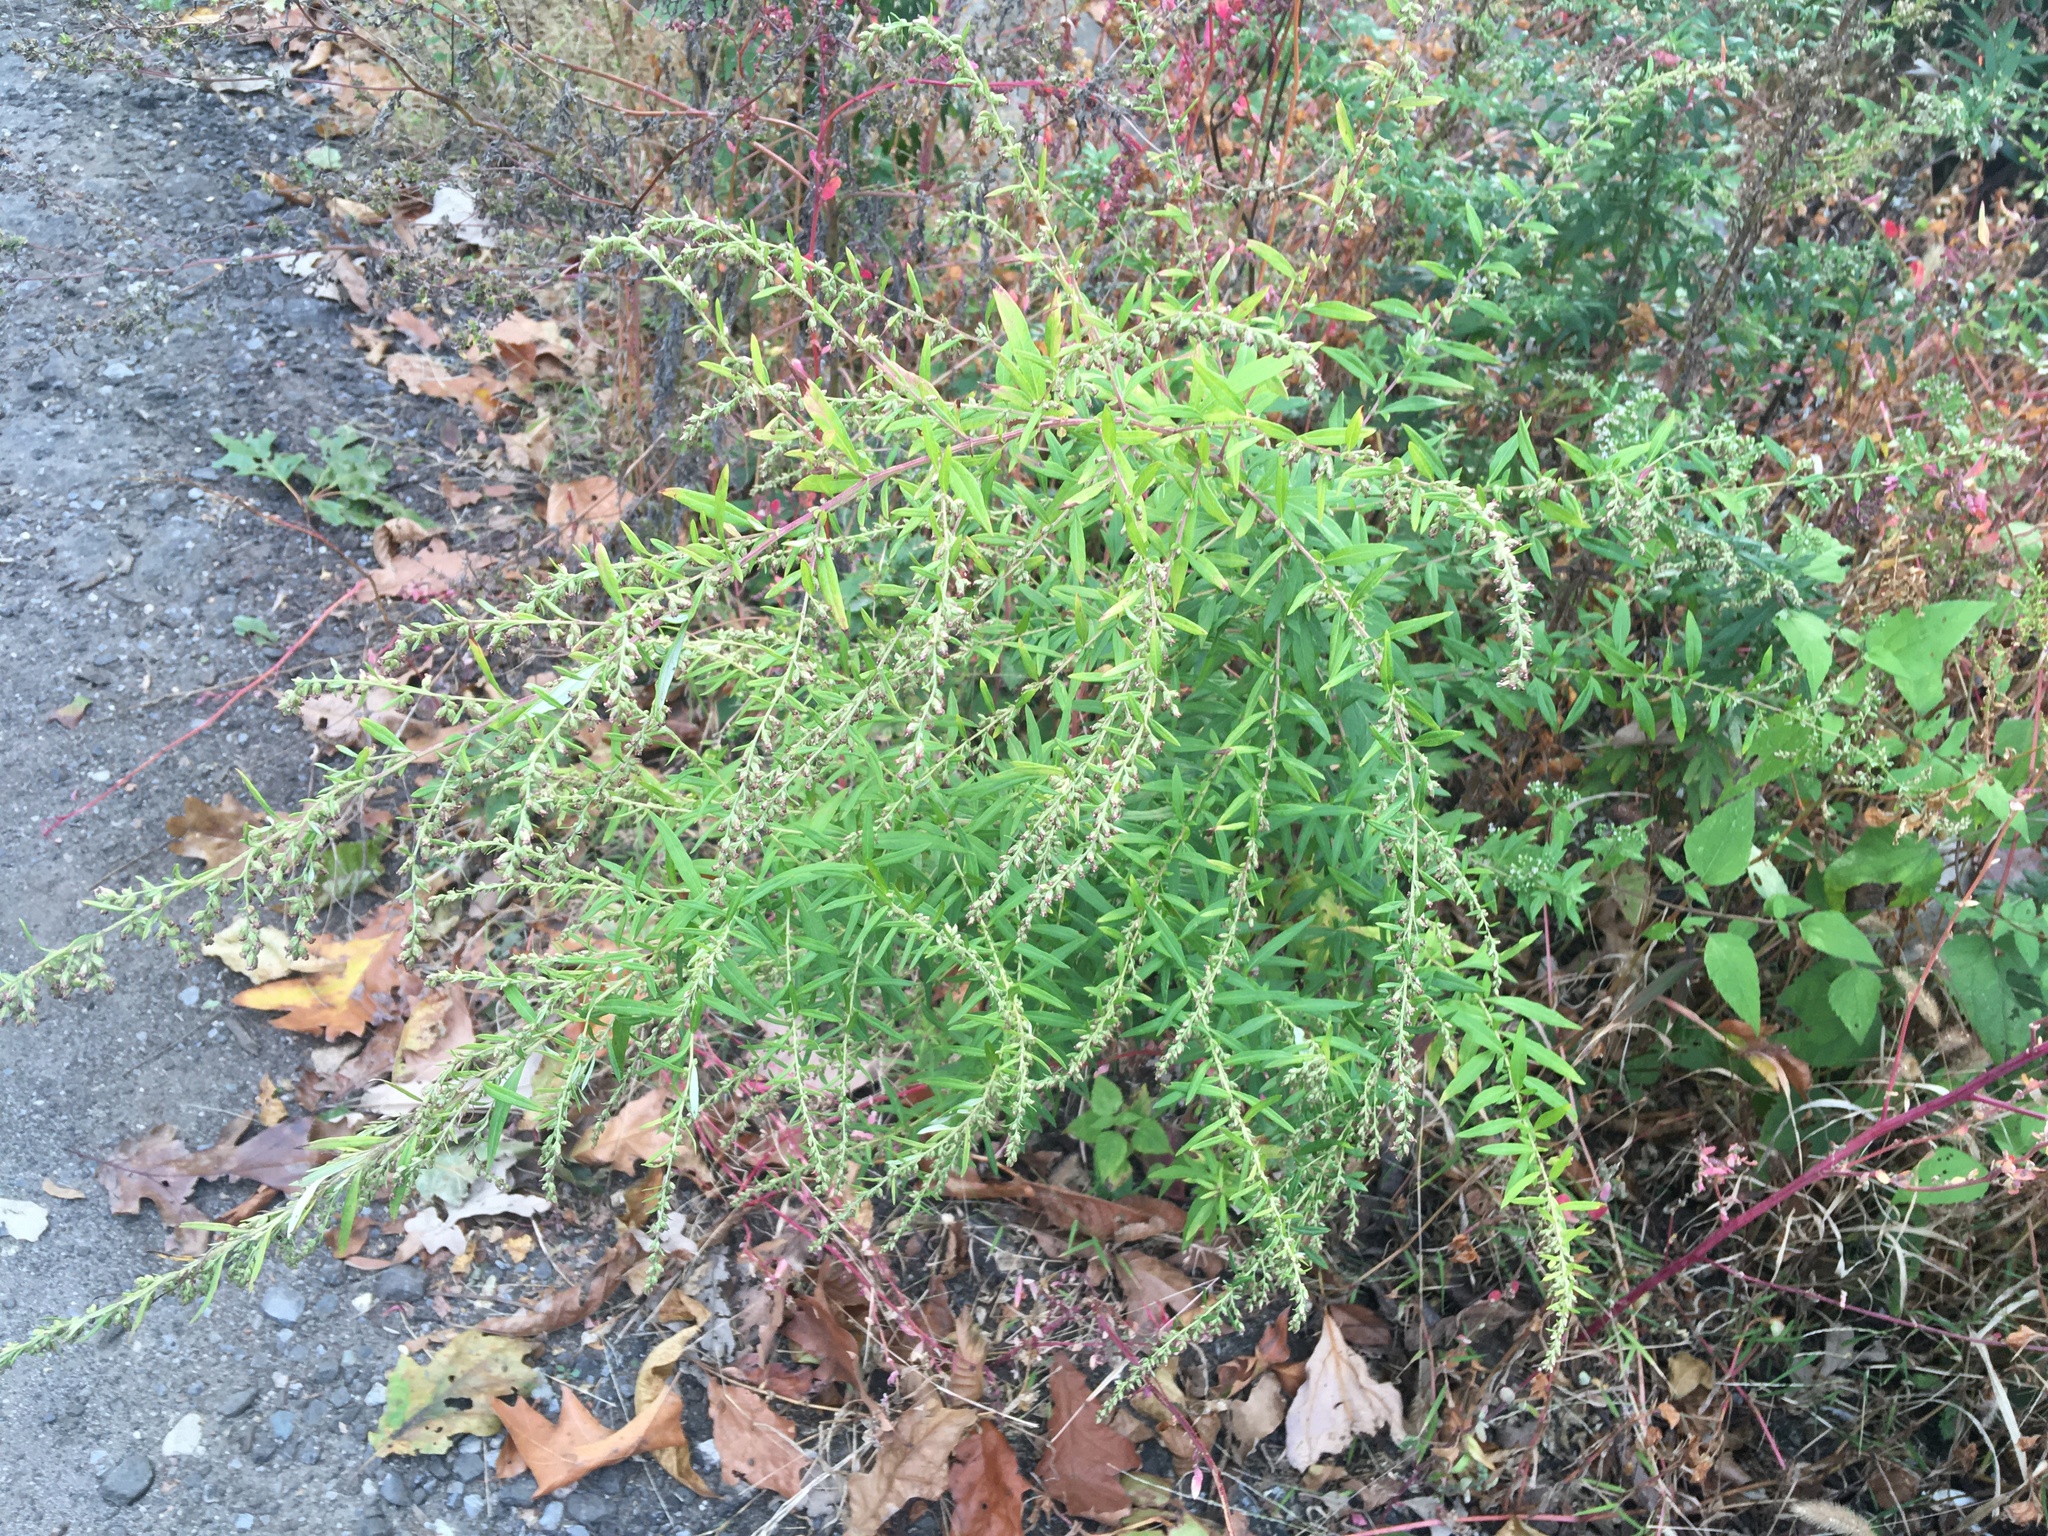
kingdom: Plantae
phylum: Tracheophyta
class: Magnoliopsida
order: Asterales
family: Asteraceae
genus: Artemisia
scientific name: Artemisia vulgaris
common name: Mugwort
